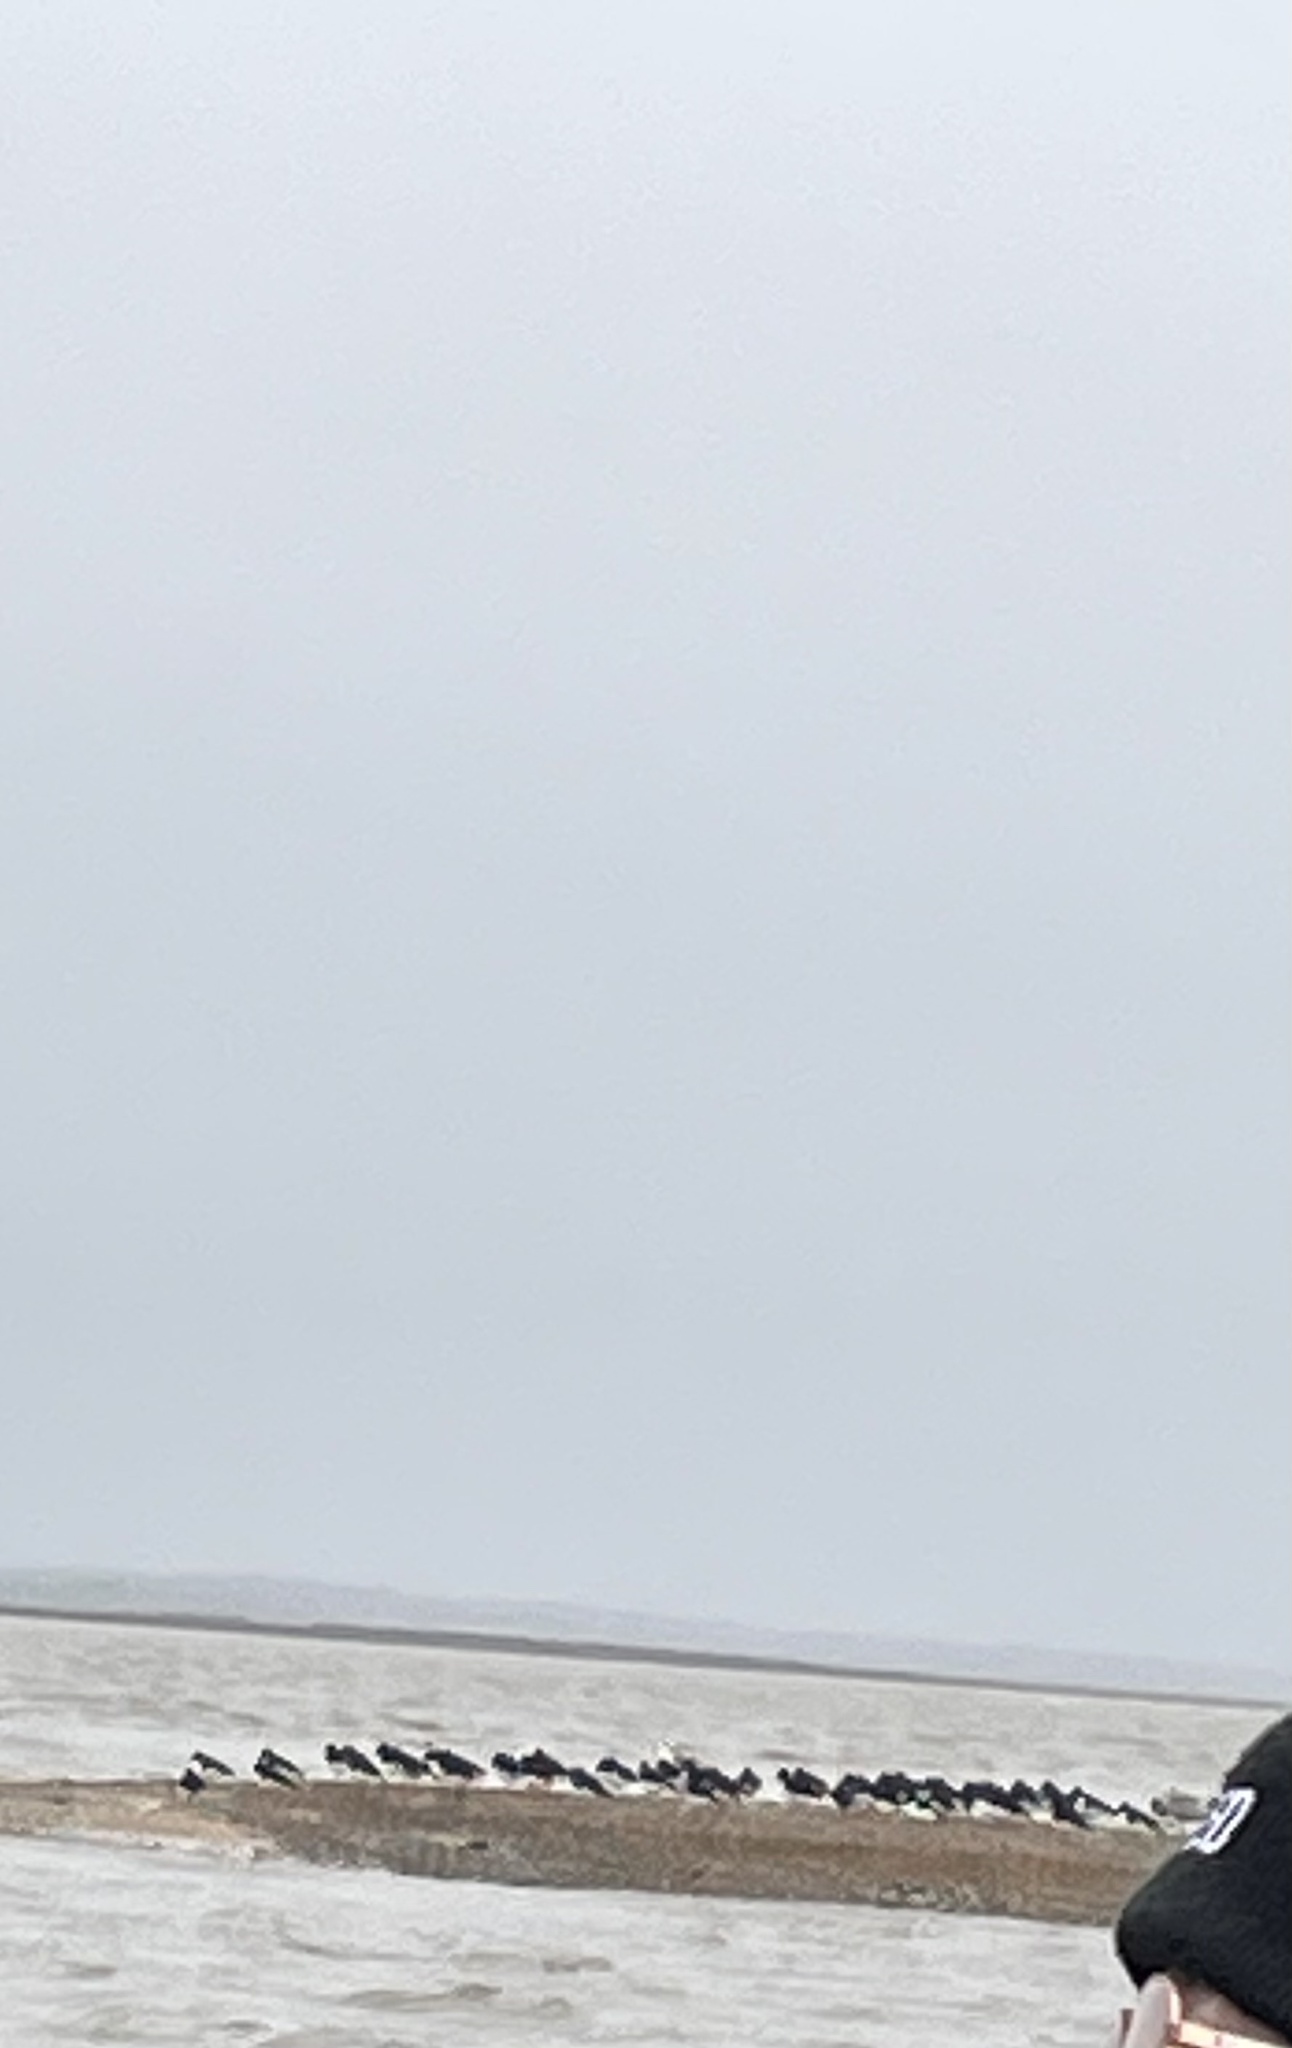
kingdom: Animalia
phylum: Chordata
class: Aves
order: Charadriiformes
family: Haematopodidae
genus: Haematopus
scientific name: Haematopus ostralegus
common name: Eurasian oystercatcher
